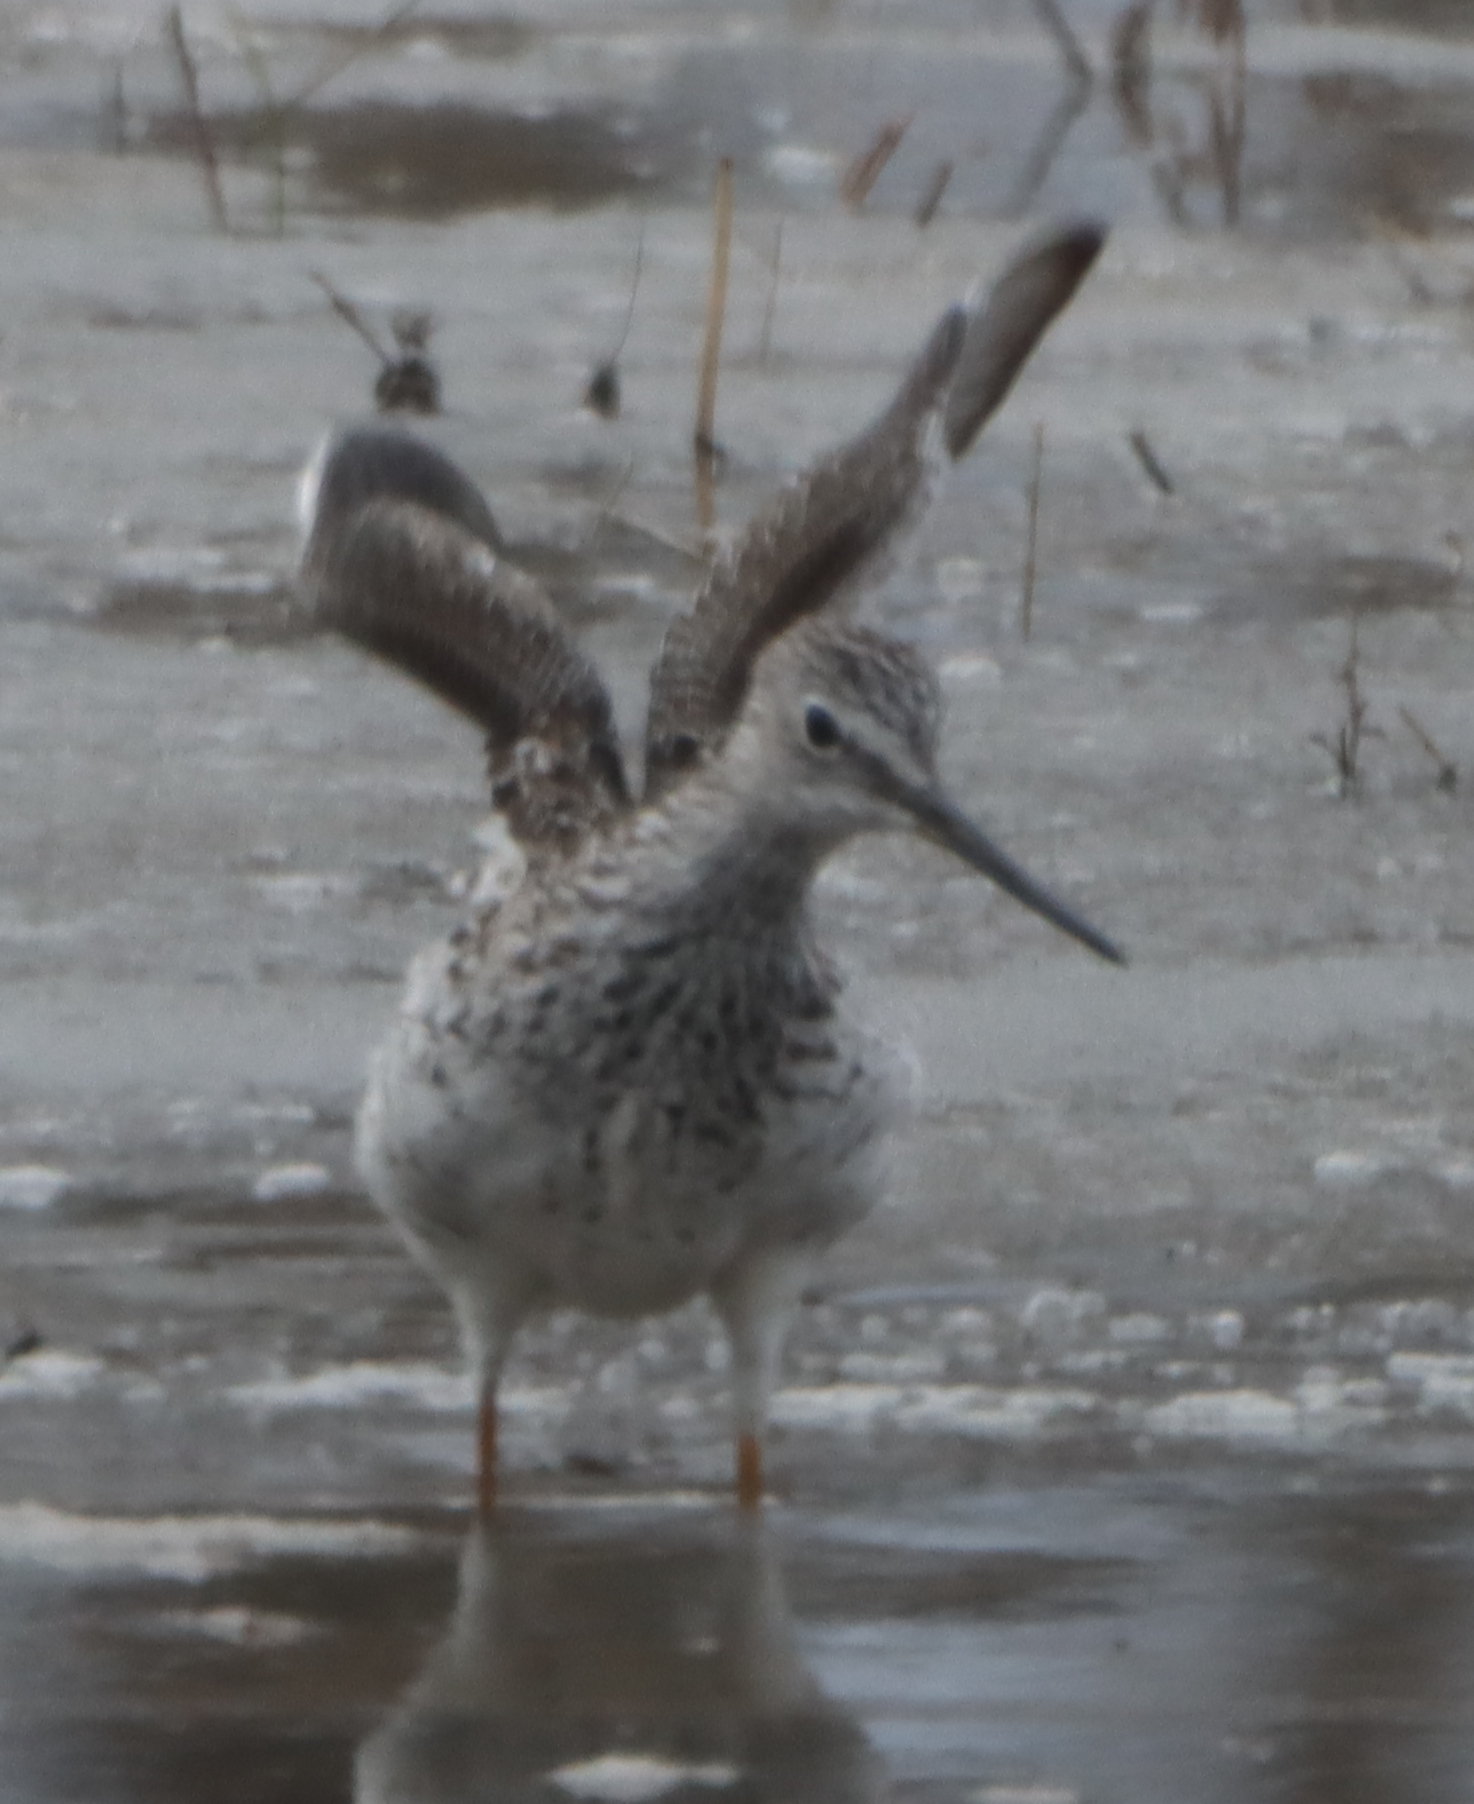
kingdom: Animalia
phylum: Chordata
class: Aves
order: Charadriiformes
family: Scolopacidae
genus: Tringa
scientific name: Tringa melanoleuca
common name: Greater yellowlegs
